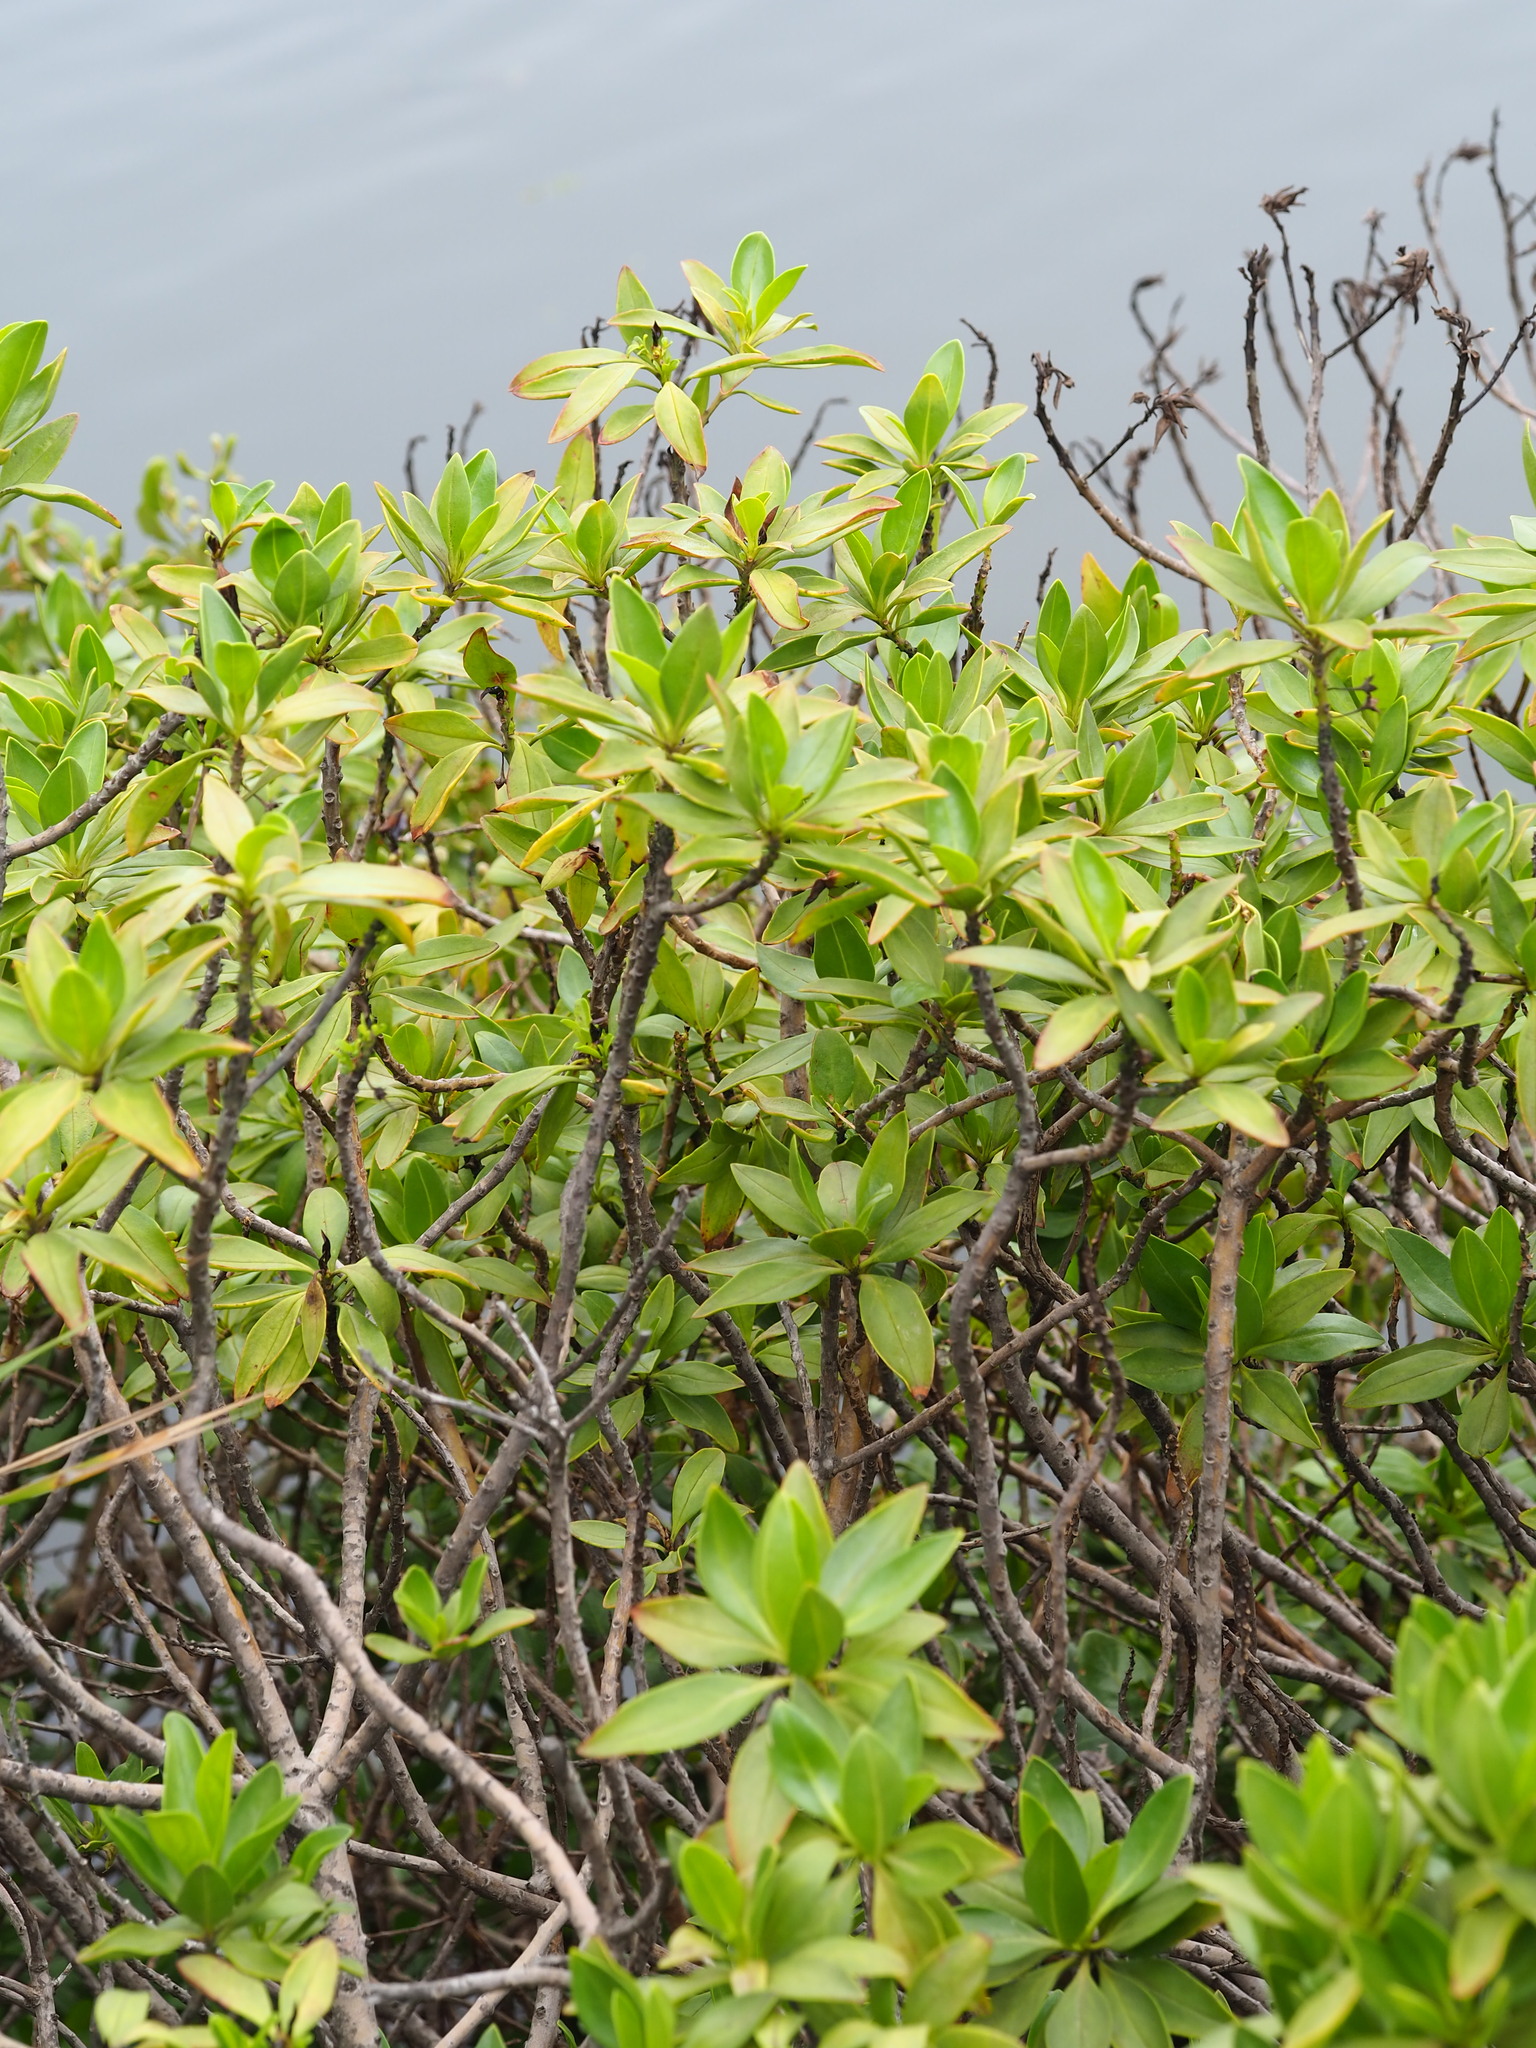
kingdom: Plantae
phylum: Tracheophyta
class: Magnoliopsida
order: Lamiales
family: Scrophulariaceae
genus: Myoporum
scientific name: Myoporum bontioides
